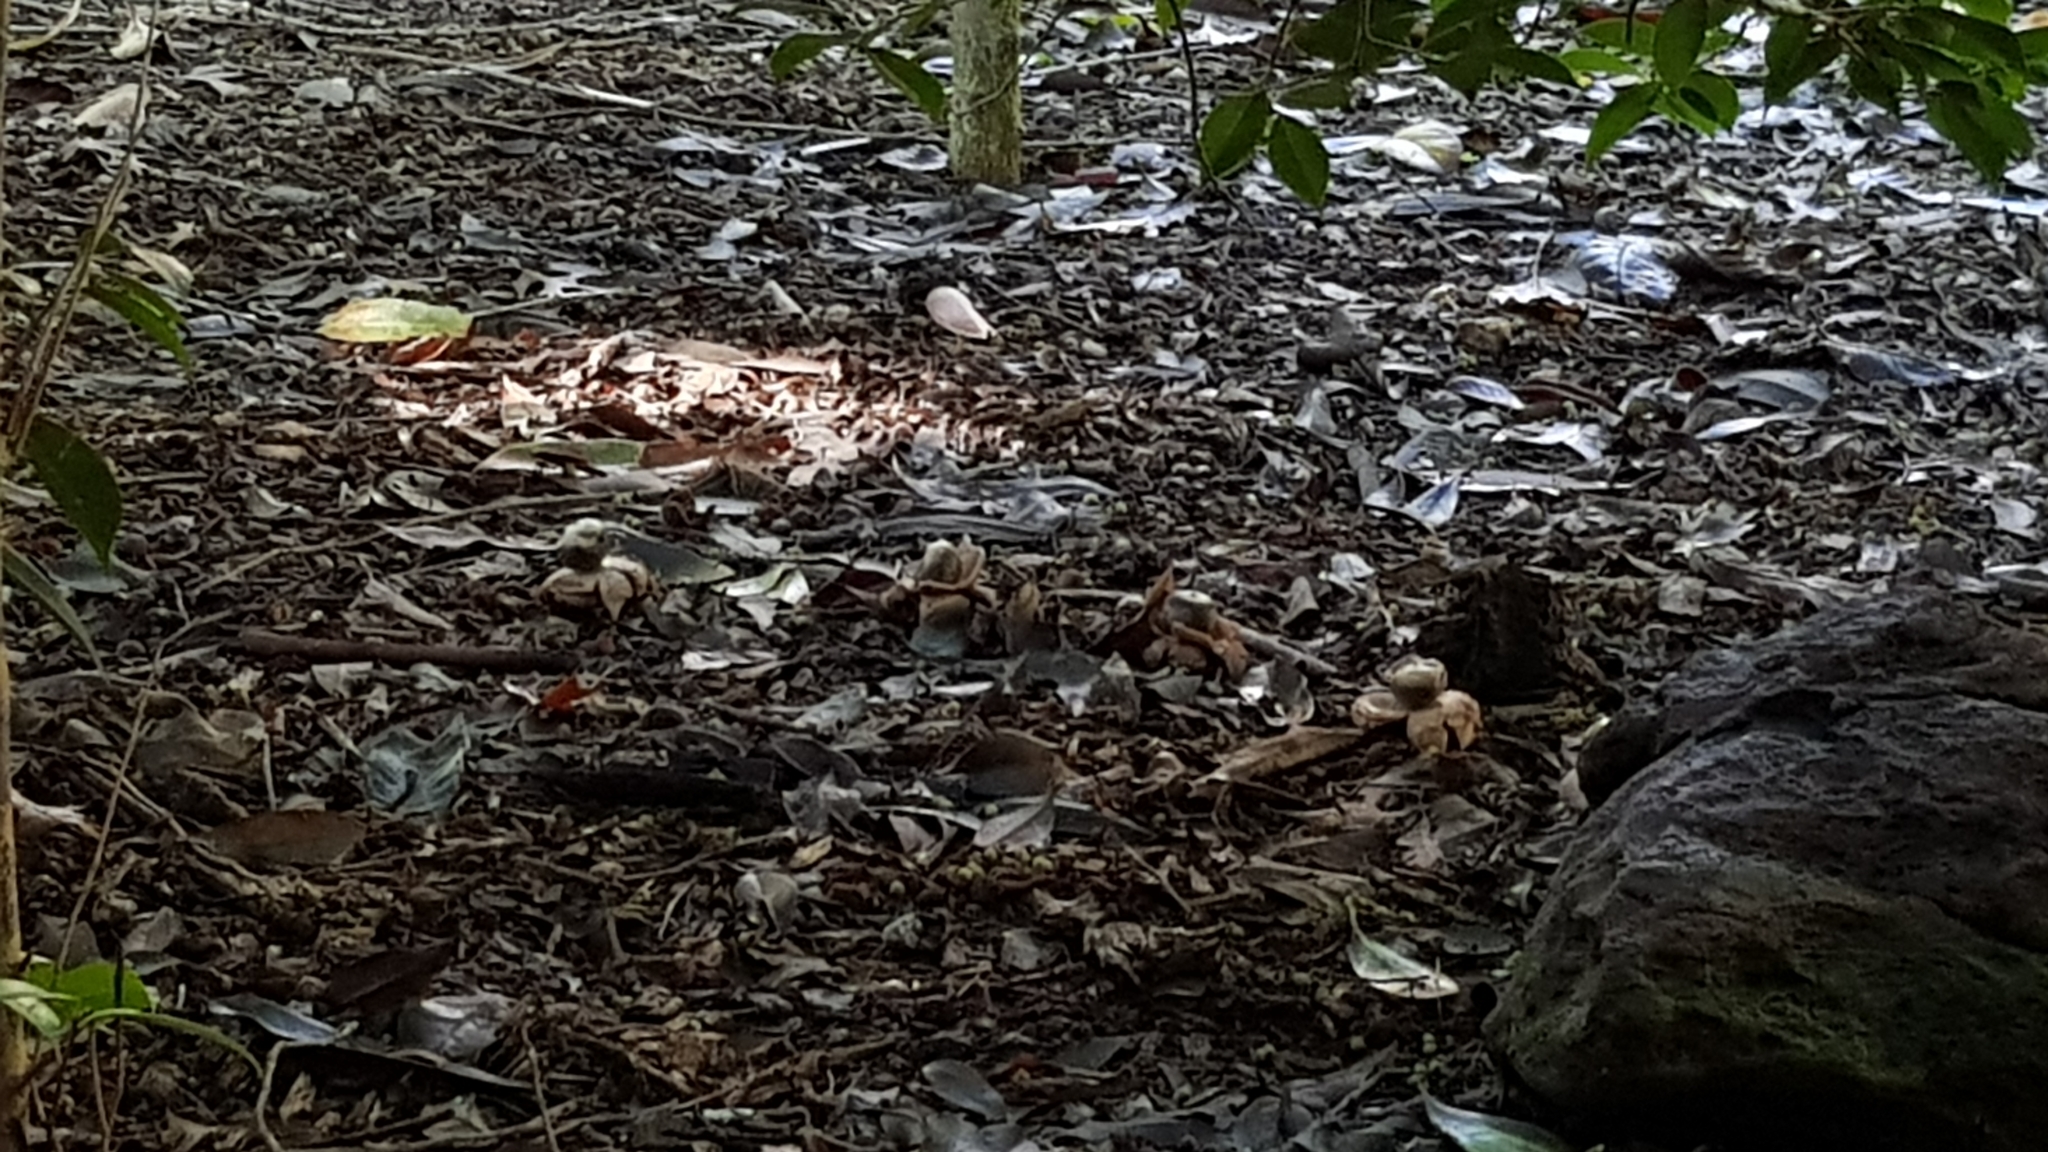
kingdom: Fungi
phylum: Basidiomycota
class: Agaricomycetes
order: Geastrales
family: Geastraceae
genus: Geastrum
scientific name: Geastrum triplex
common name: Collared earthstar
